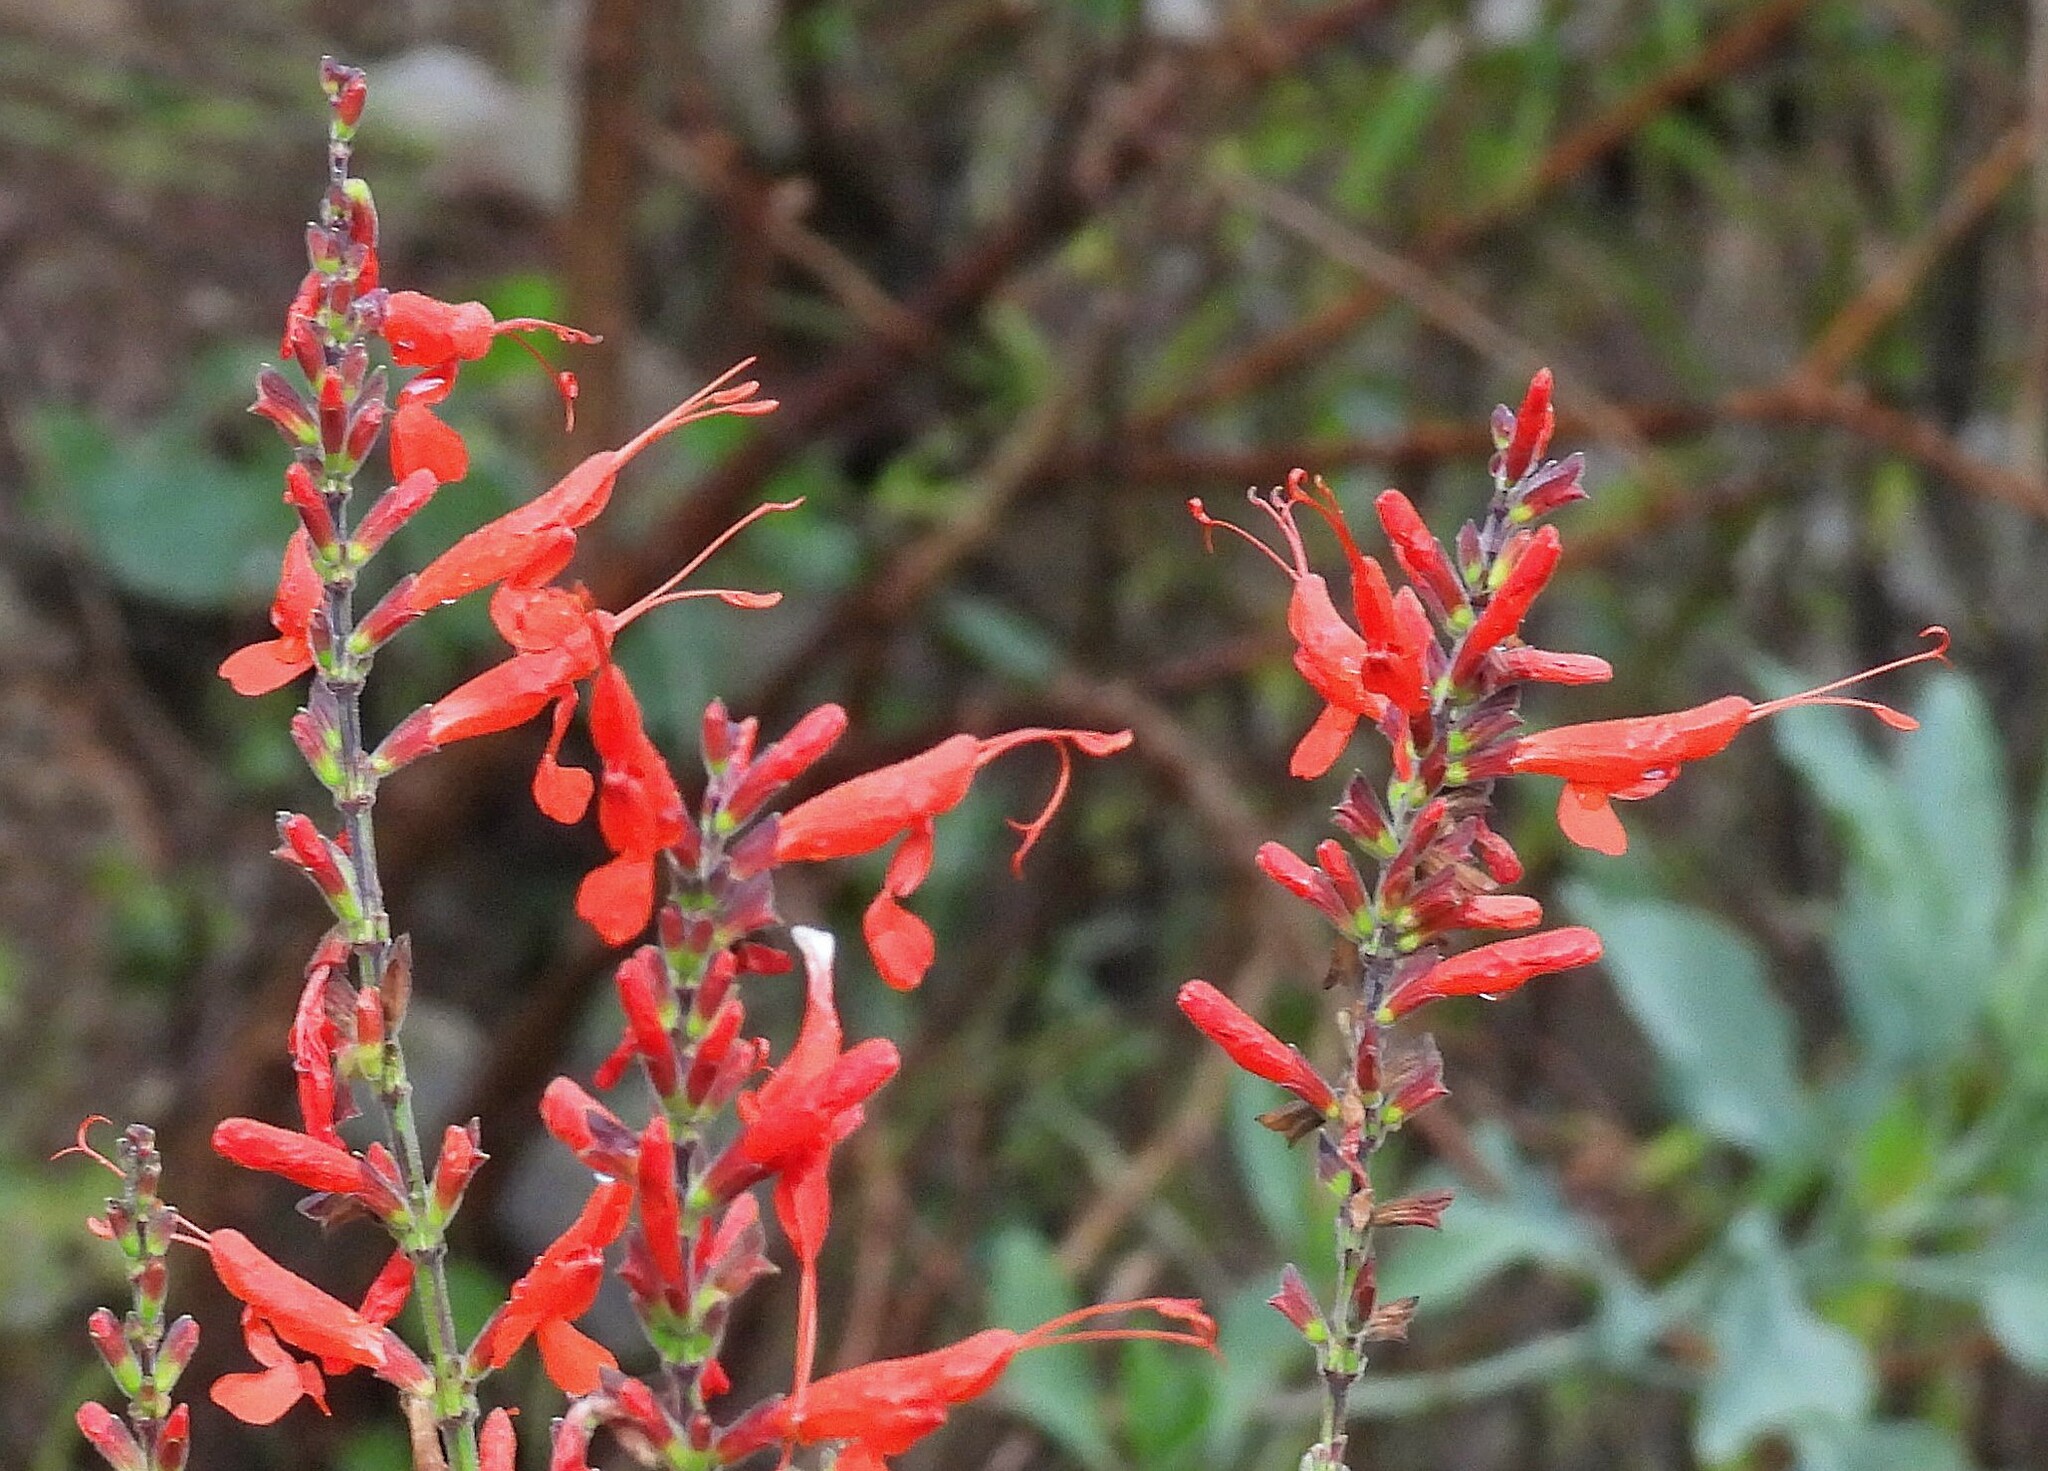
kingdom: Plantae
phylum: Tracheophyta
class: Magnoliopsida
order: Lamiales
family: Lamiaceae
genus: Salvia
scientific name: Salvia exserta
